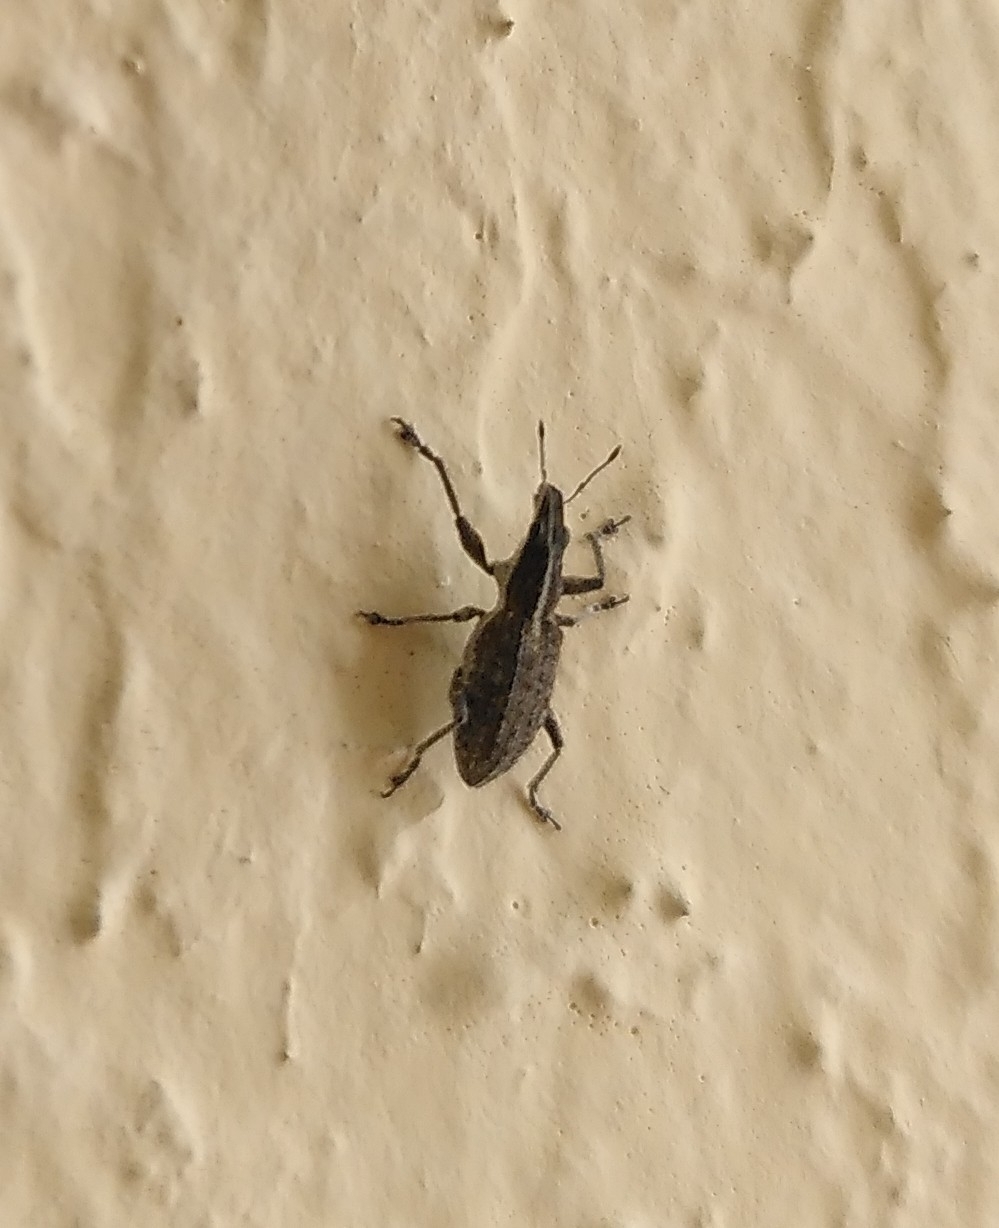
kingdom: Animalia
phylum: Arthropoda
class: Insecta
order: Coleoptera
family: Curculionidae
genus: Charagmus
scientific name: Charagmus gressorius
